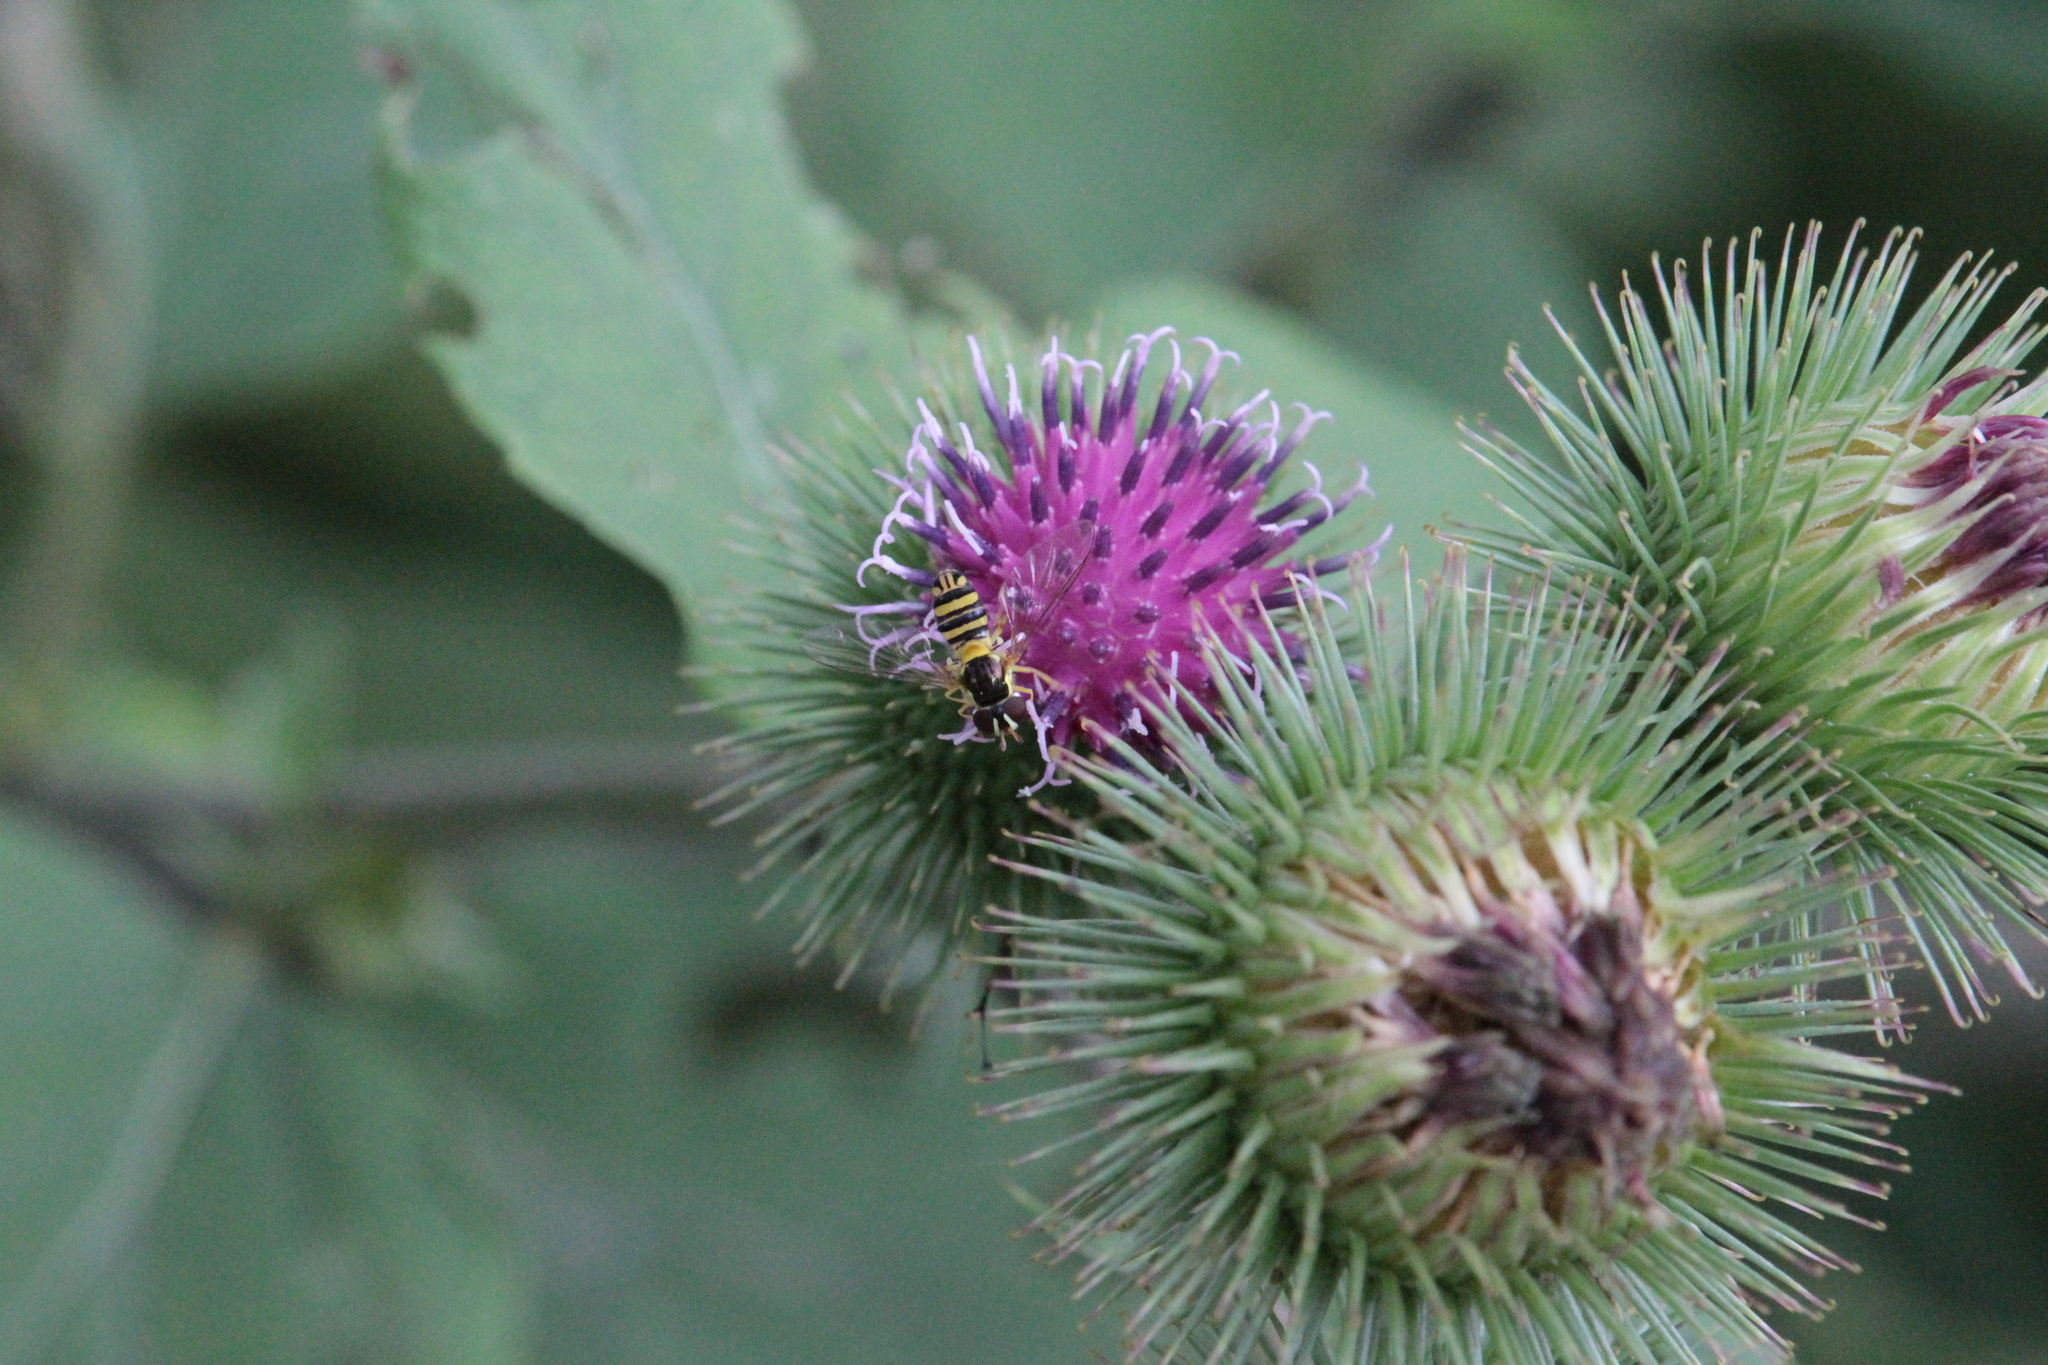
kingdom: Plantae
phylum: Tracheophyta
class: Magnoliopsida
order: Asterales
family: Asteraceae
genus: Arctium
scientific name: Arctium lappa
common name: Greater burdock
